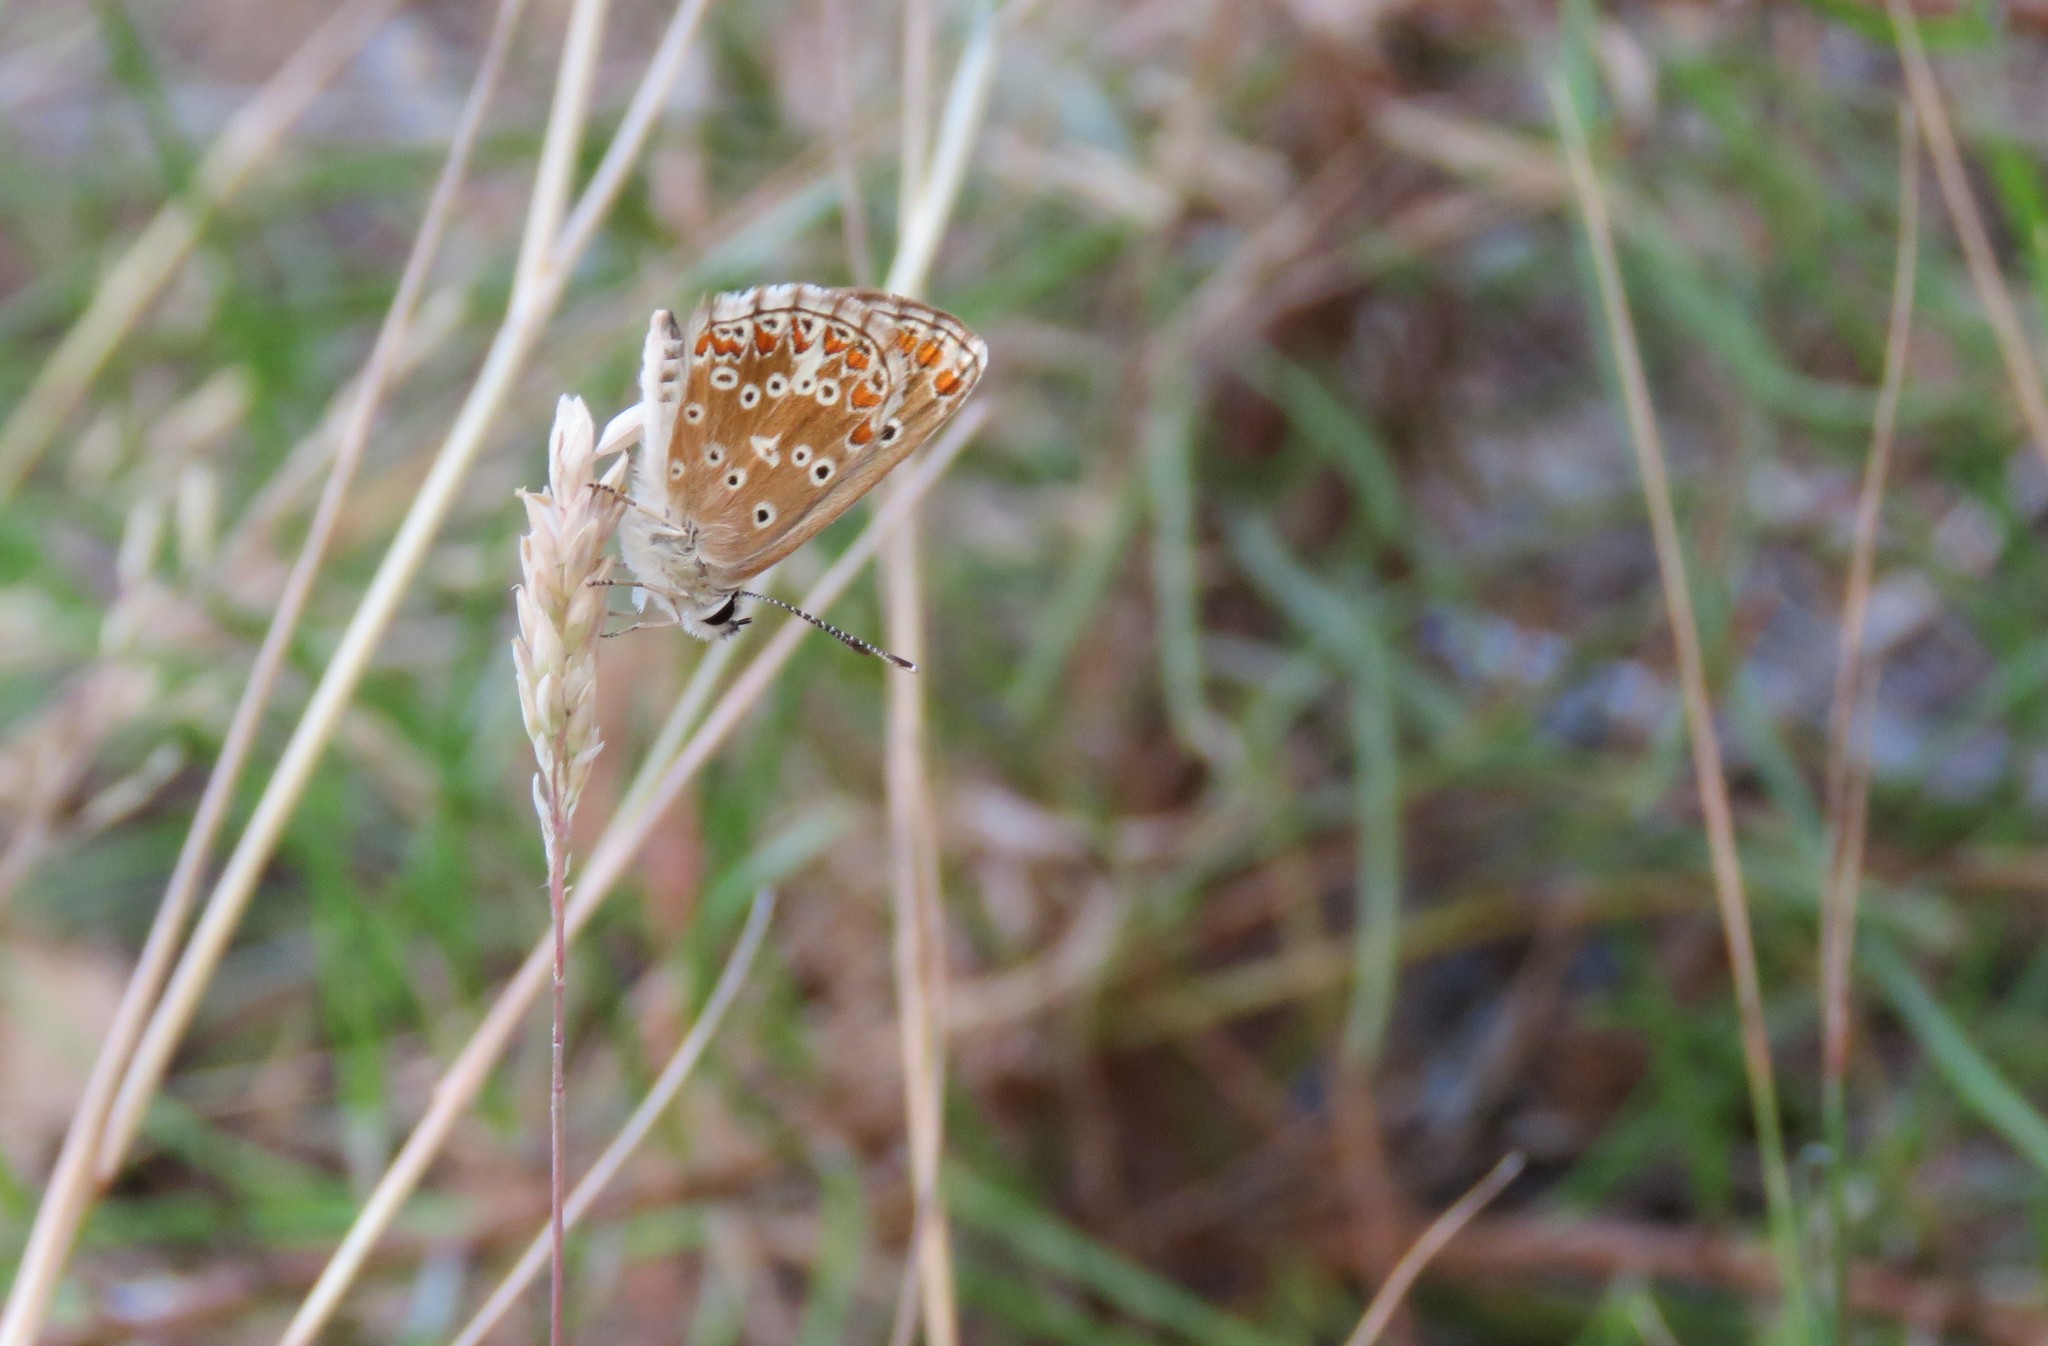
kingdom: Animalia
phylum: Arthropoda
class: Insecta
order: Lepidoptera
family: Lycaenidae
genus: Aricia
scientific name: Aricia cramera
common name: Eschscholtz´s brown  argus
